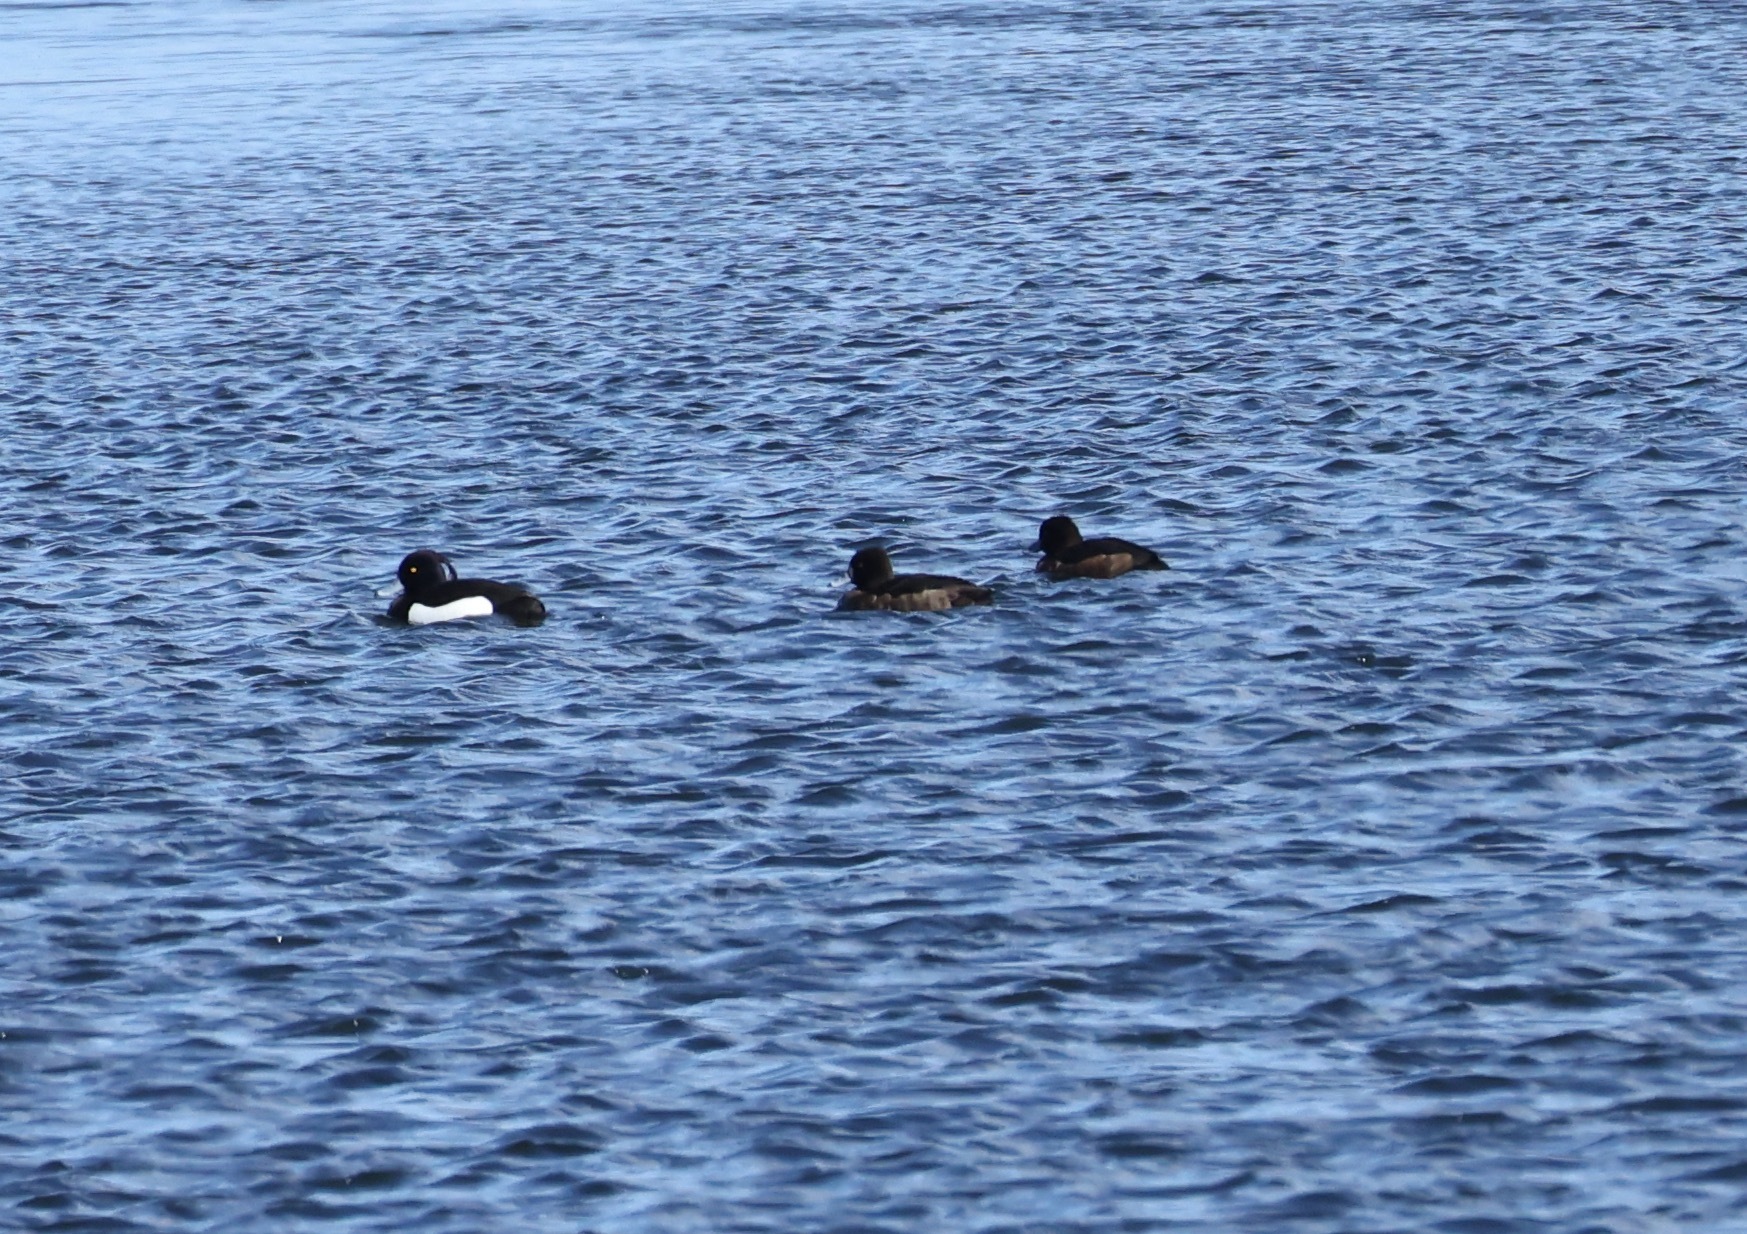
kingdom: Animalia
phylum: Chordata
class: Aves
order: Anseriformes
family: Anatidae
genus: Aythya
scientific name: Aythya fuligula
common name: Tufted duck
